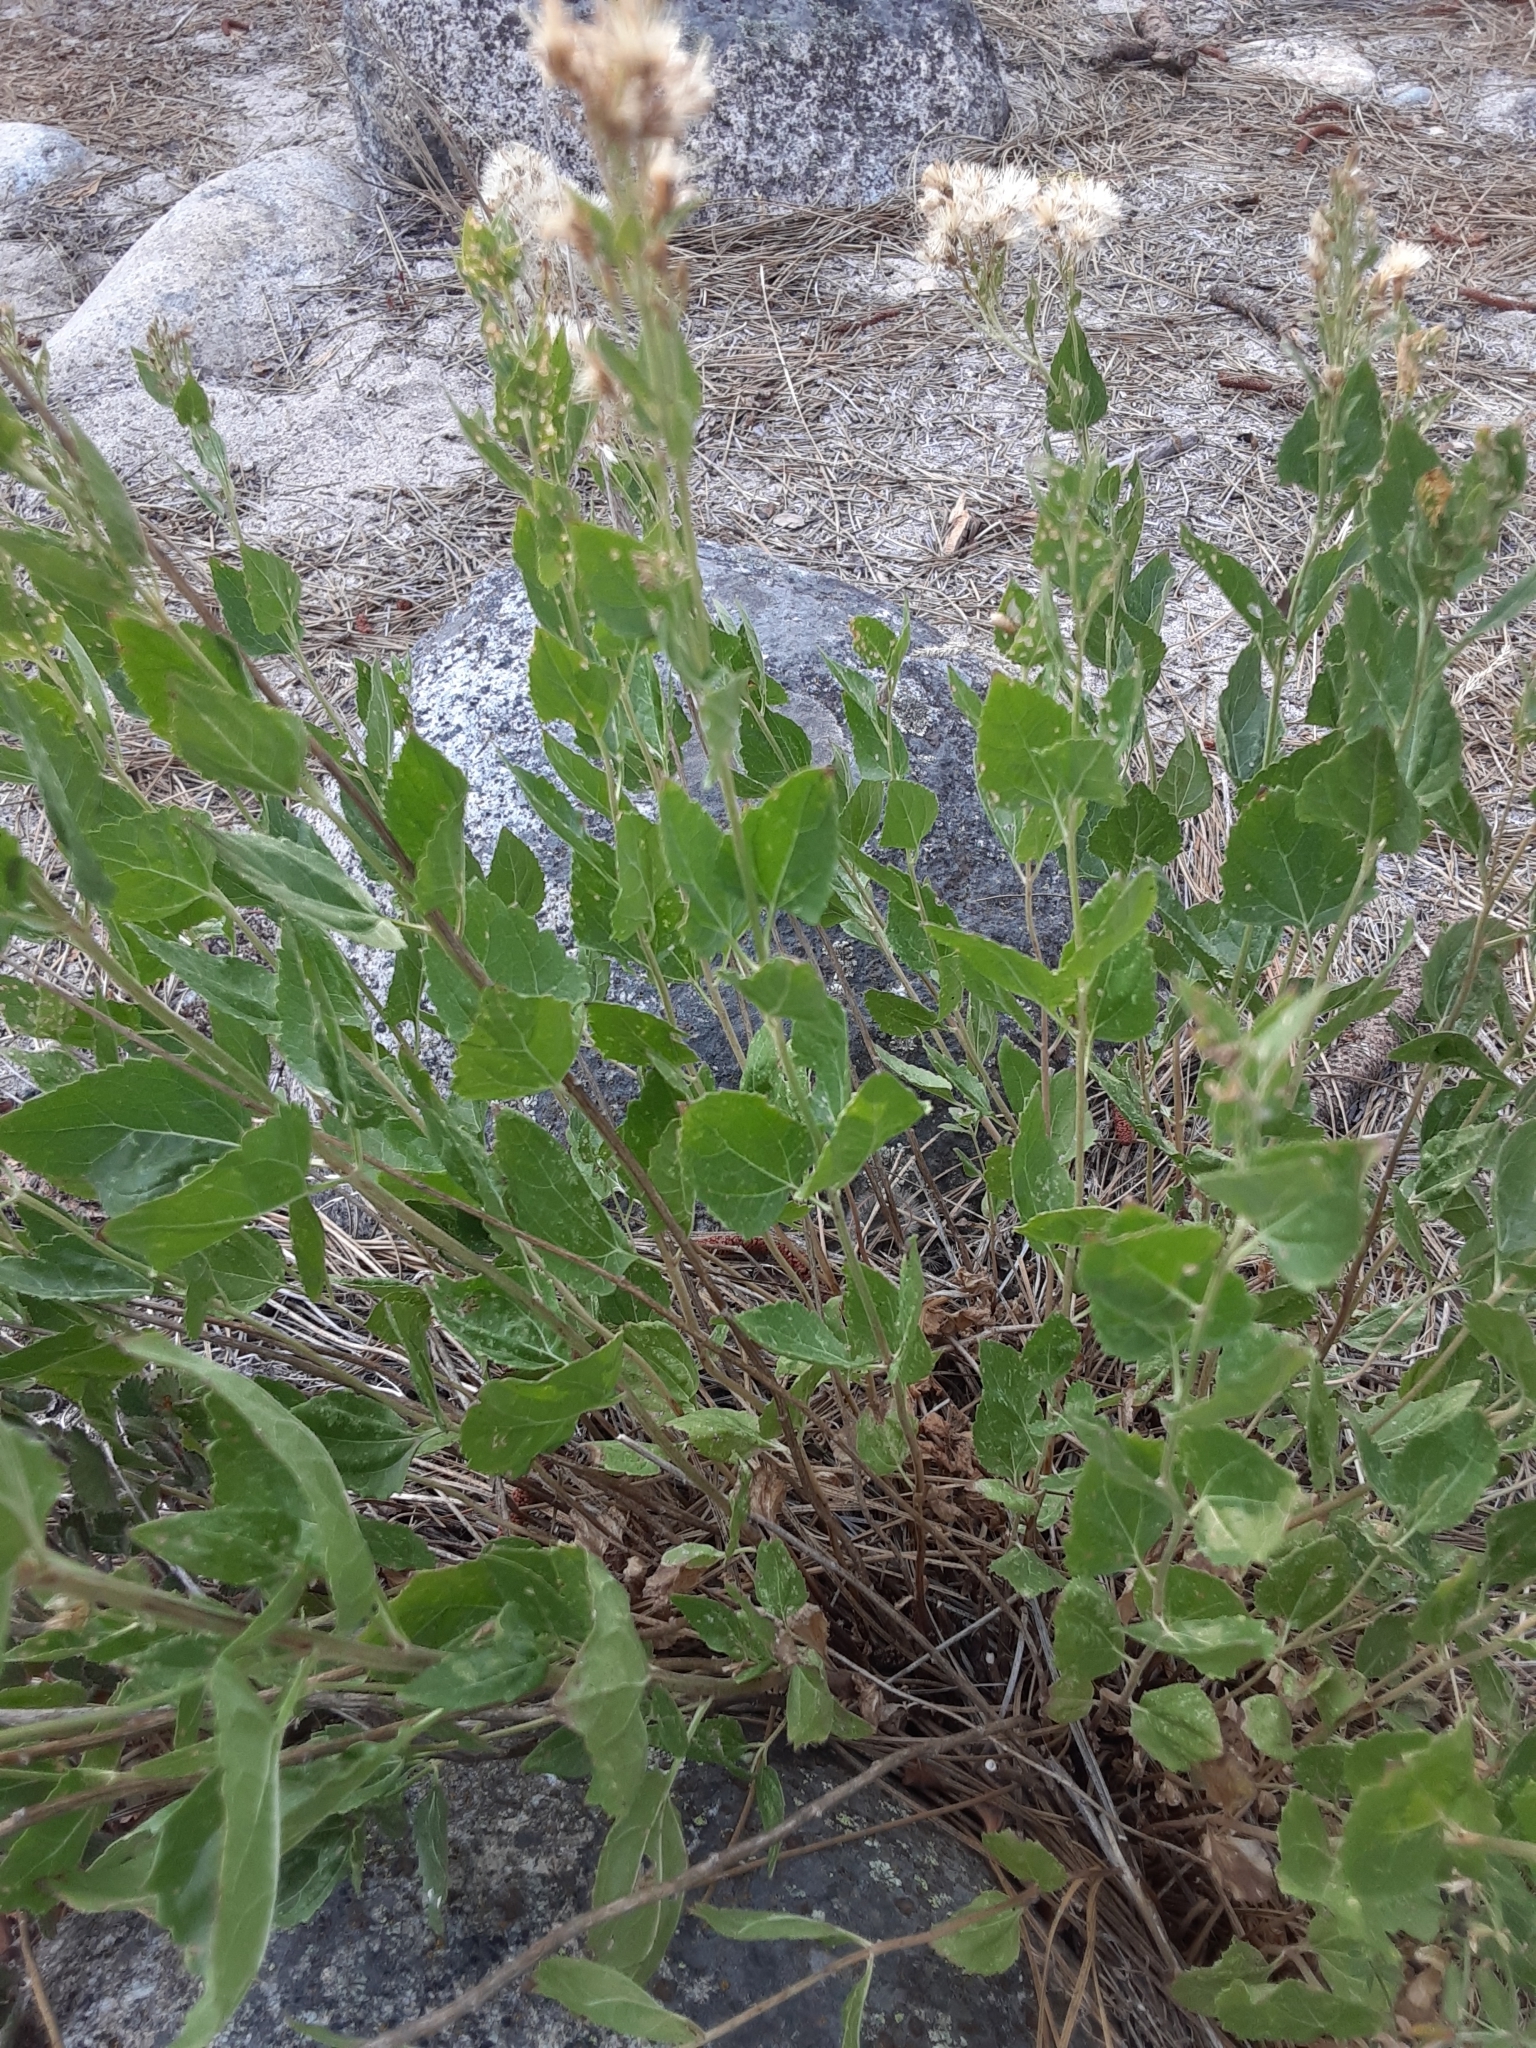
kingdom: Plantae
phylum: Tracheophyta
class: Magnoliopsida
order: Asterales
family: Asteraceae
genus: Ageratina
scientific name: Ageratina occidentalis
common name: Western snakeroot
